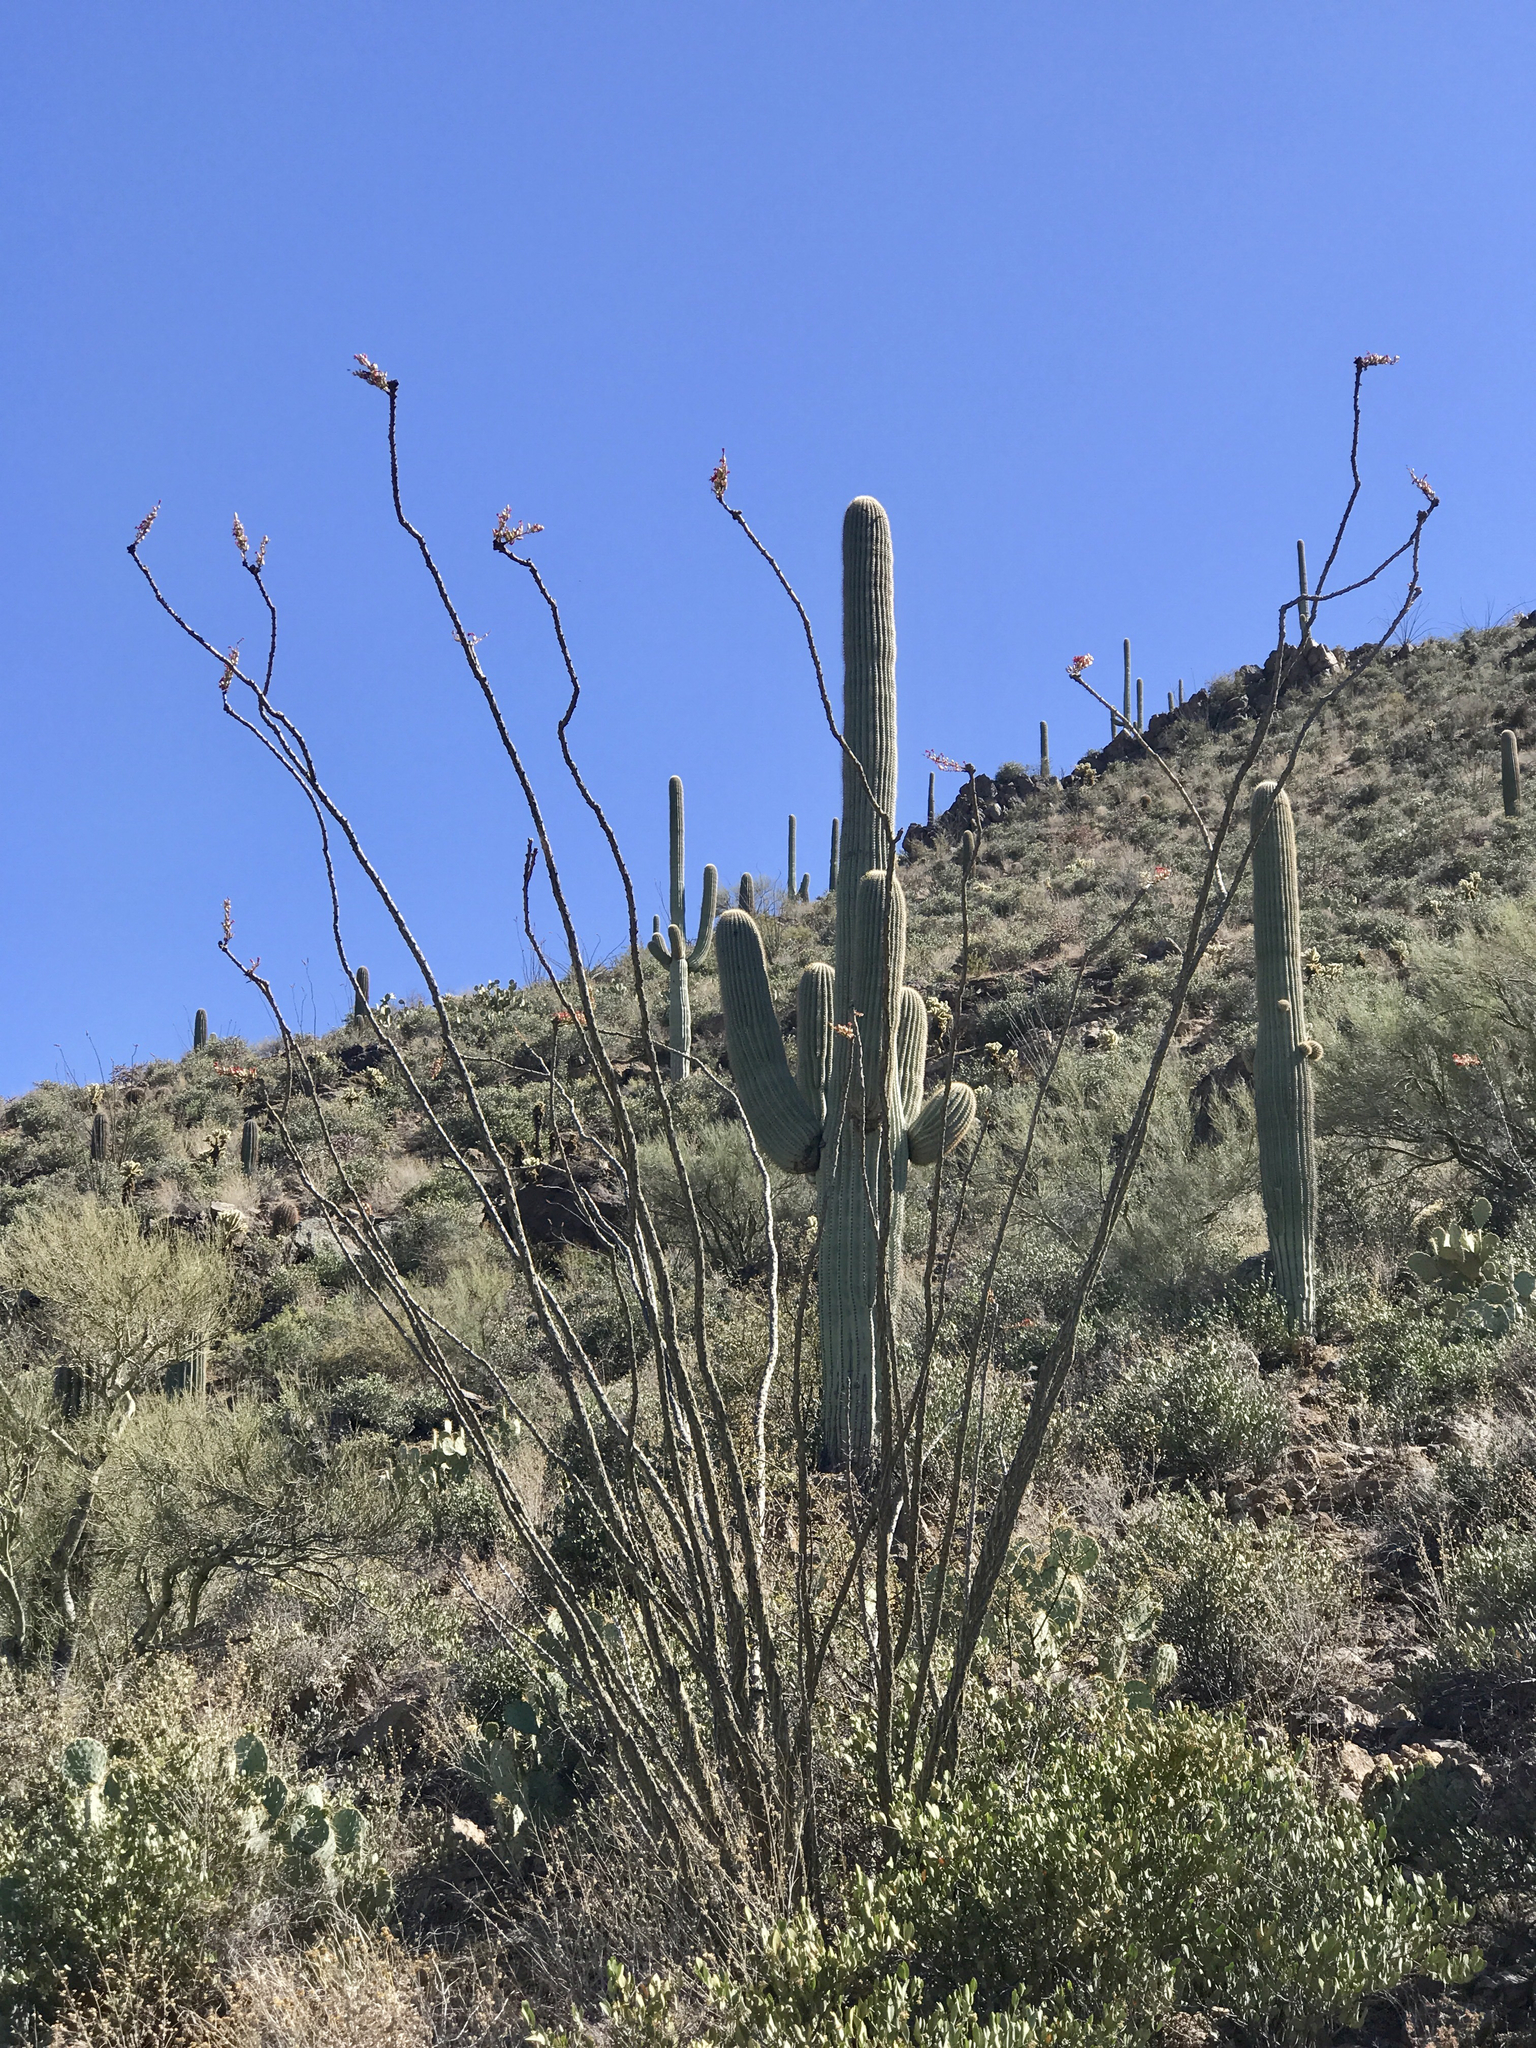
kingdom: Plantae
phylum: Tracheophyta
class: Magnoliopsida
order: Ericales
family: Fouquieriaceae
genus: Fouquieria
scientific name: Fouquieria splendens
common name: Vine-cactus
